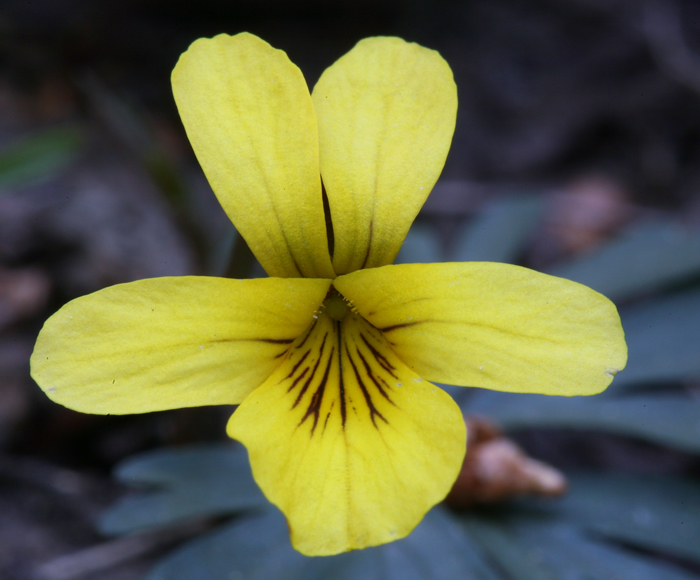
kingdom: Plantae
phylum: Tracheophyta
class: Magnoliopsida
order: Malpighiales
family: Violaceae
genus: Viola
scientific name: Viola sheltonii
